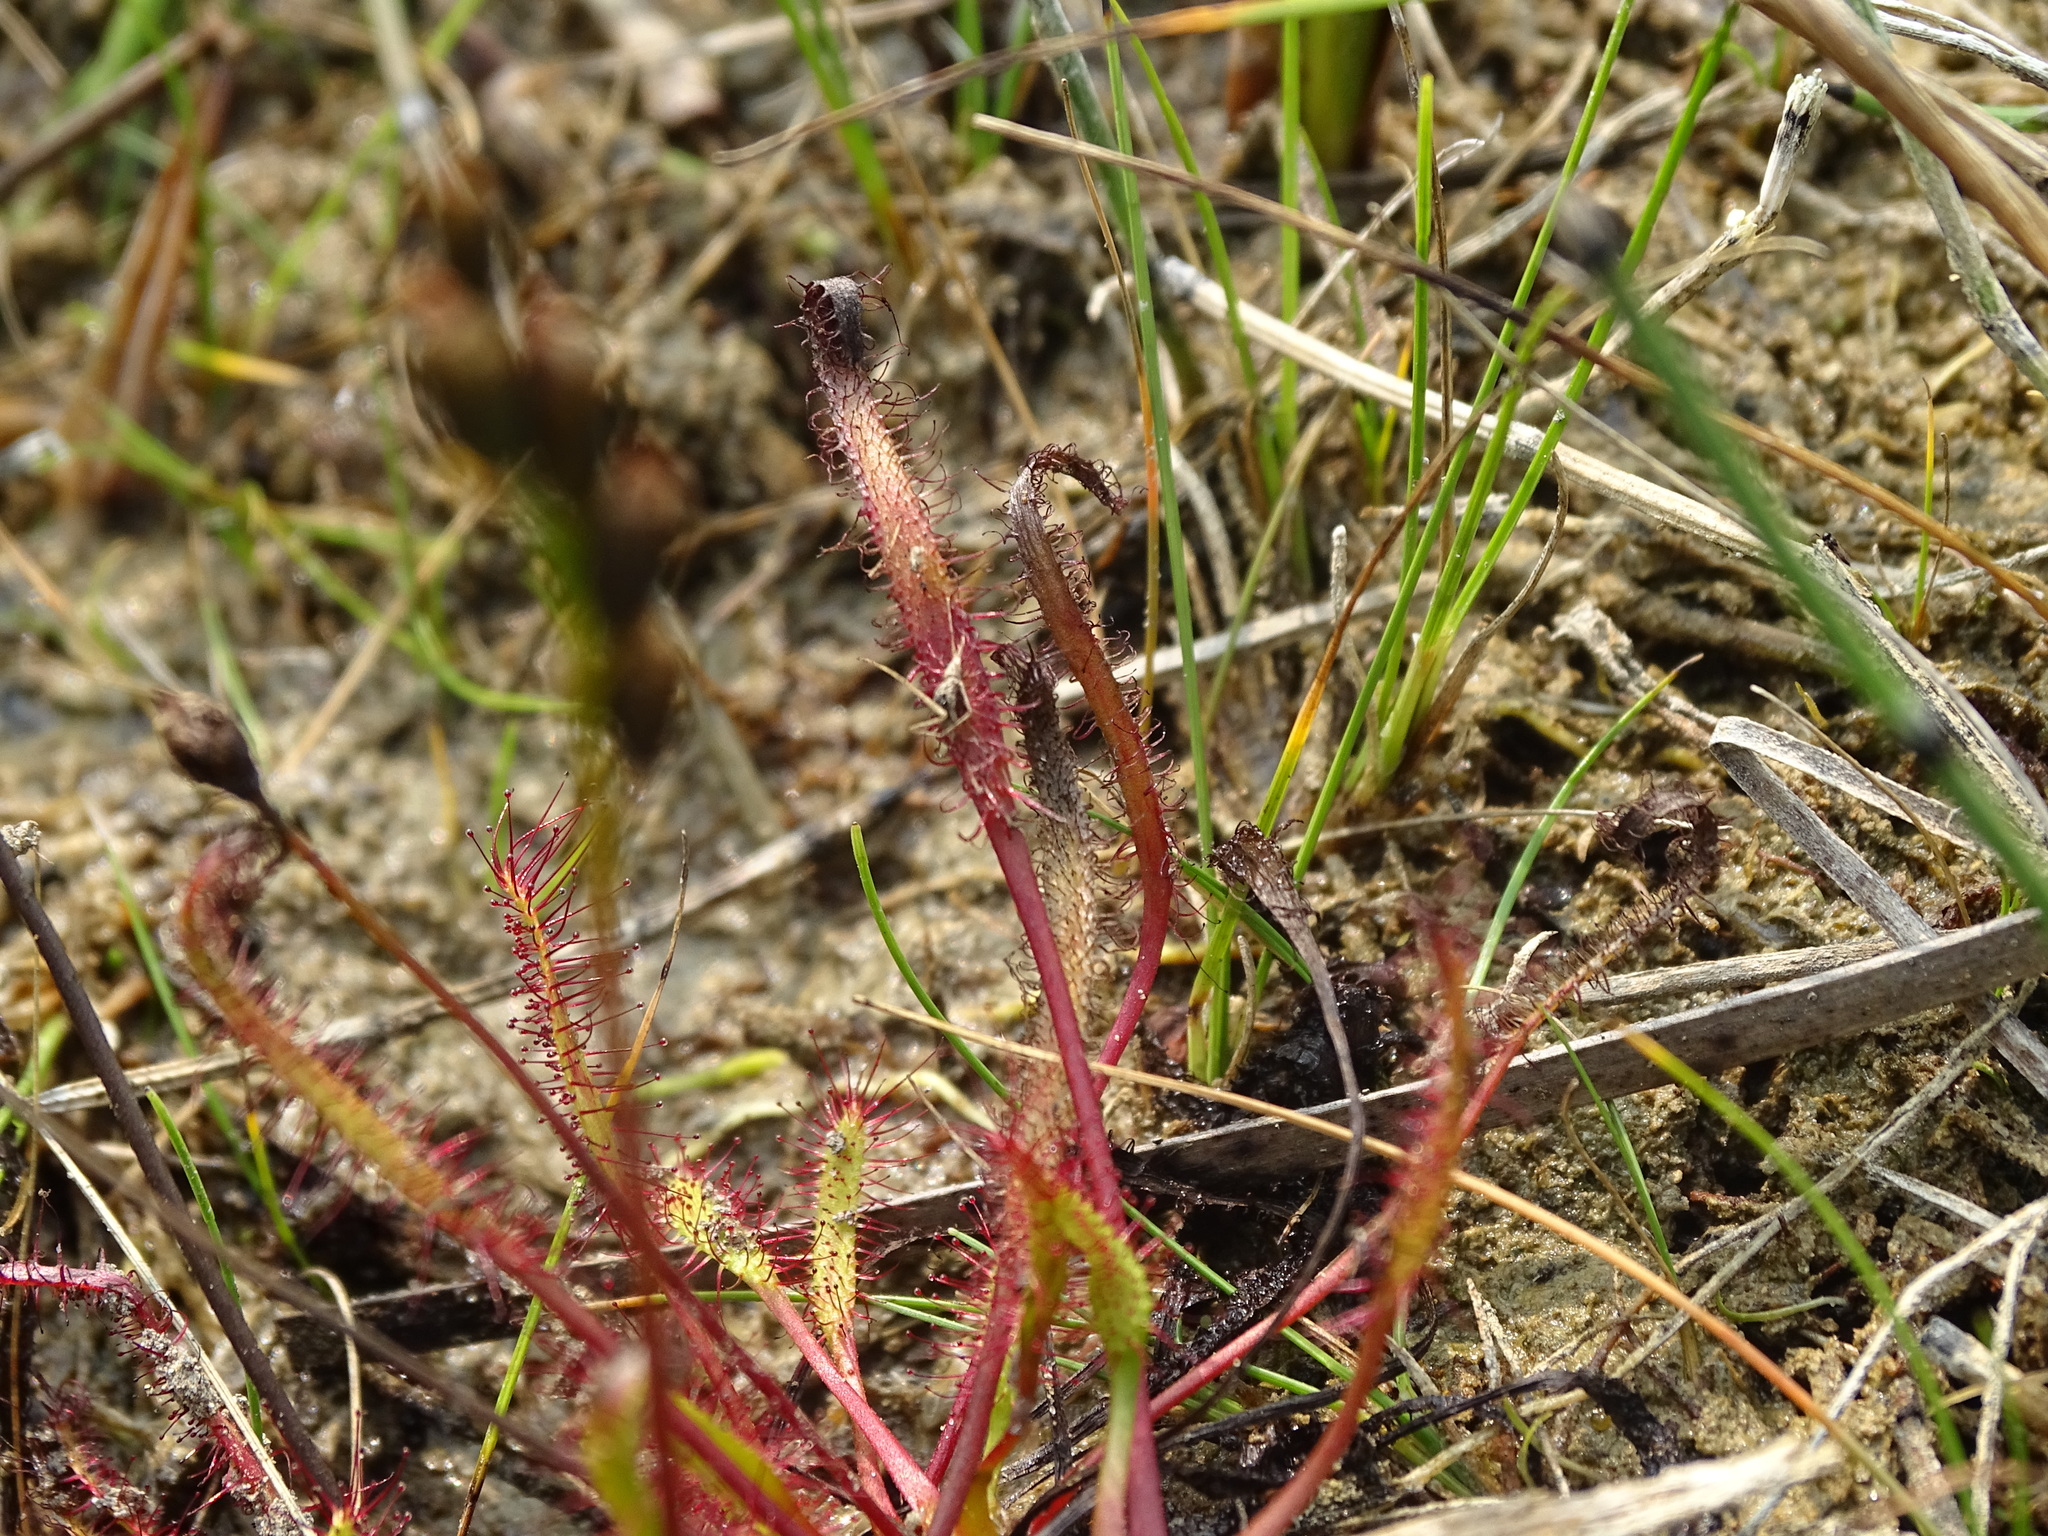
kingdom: Plantae
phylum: Tracheophyta
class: Magnoliopsida
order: Caryophyllales
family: Droseraceae
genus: Drosera
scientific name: Drosera linearis
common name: Linear-leaved sundew
